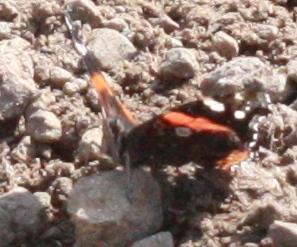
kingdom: Animalia
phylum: Arthropoda
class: Insecta
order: Lepidoptera
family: Nymphalidae
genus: Vanessa
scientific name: Vanessa atalanta
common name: Red admiral
